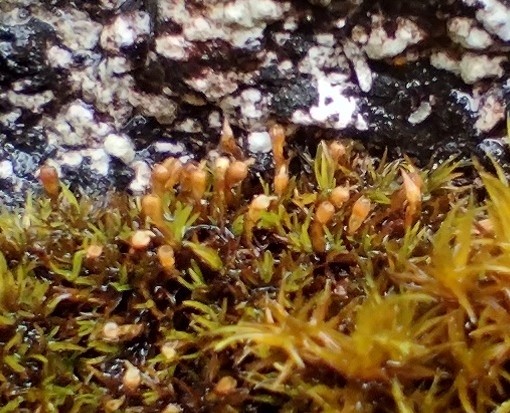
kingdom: Plantae
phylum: Bryophyta
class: Bryopsida
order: Dicranales
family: Amphidiaceae
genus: Amphidium
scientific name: Amphidium lapponicum
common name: Lapland yoke moss
